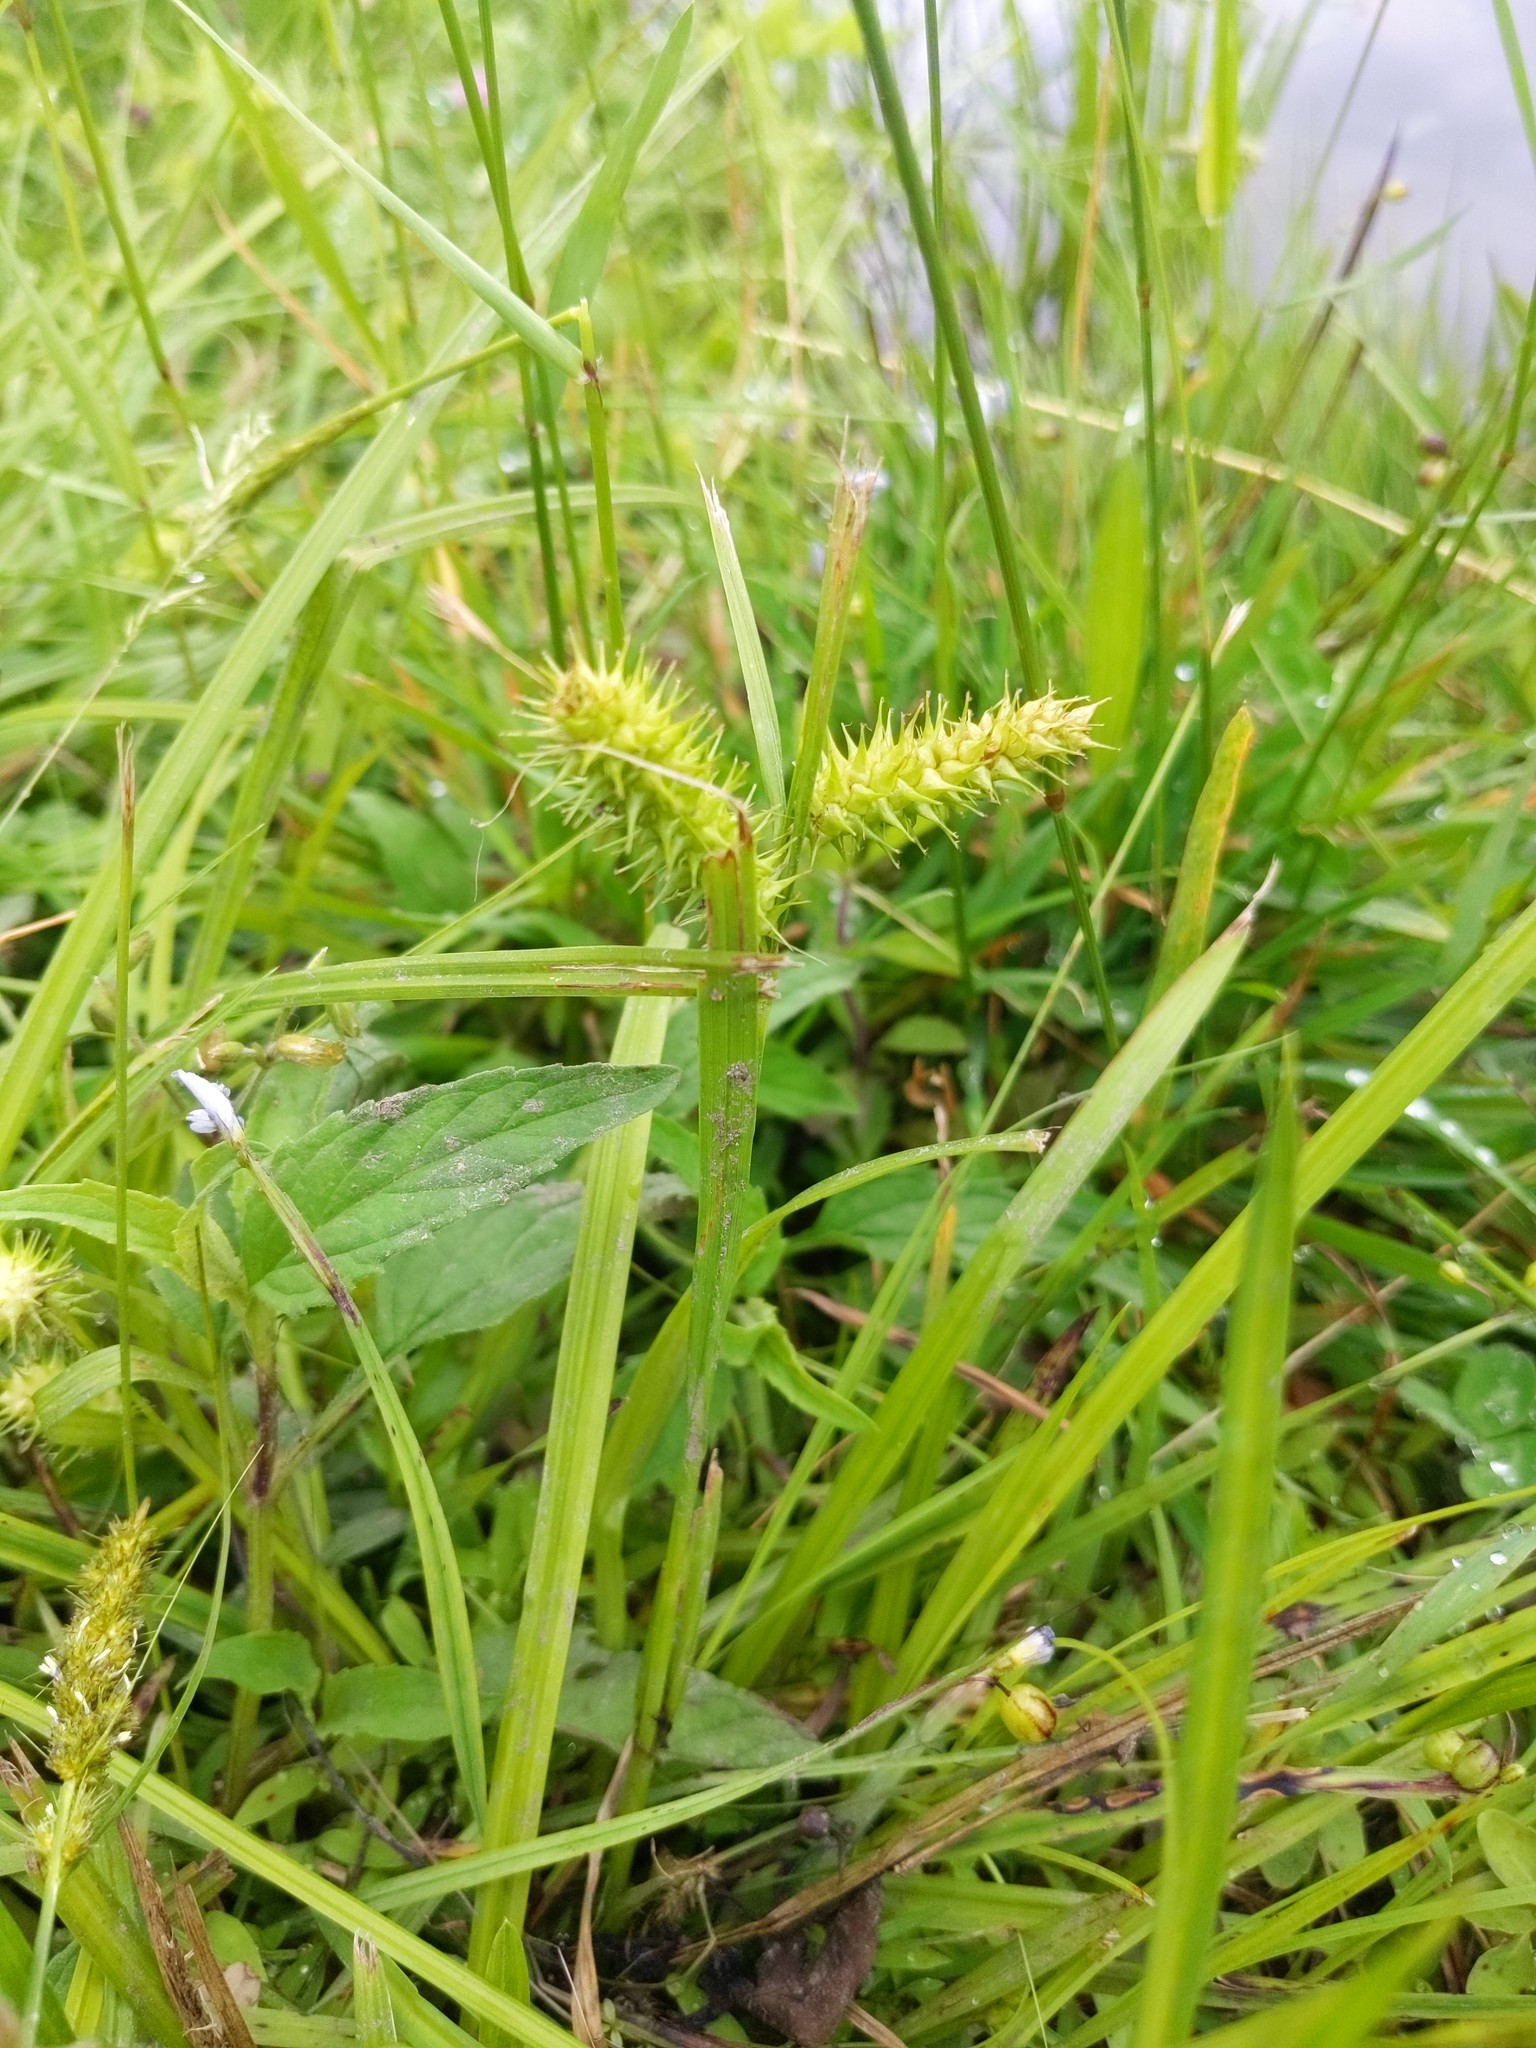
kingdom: Plantae
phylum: Tracheophyta
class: Liliopsida
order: Poales
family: Cyperaceae
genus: Carex
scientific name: Carex lurida
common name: Sallow sedge
